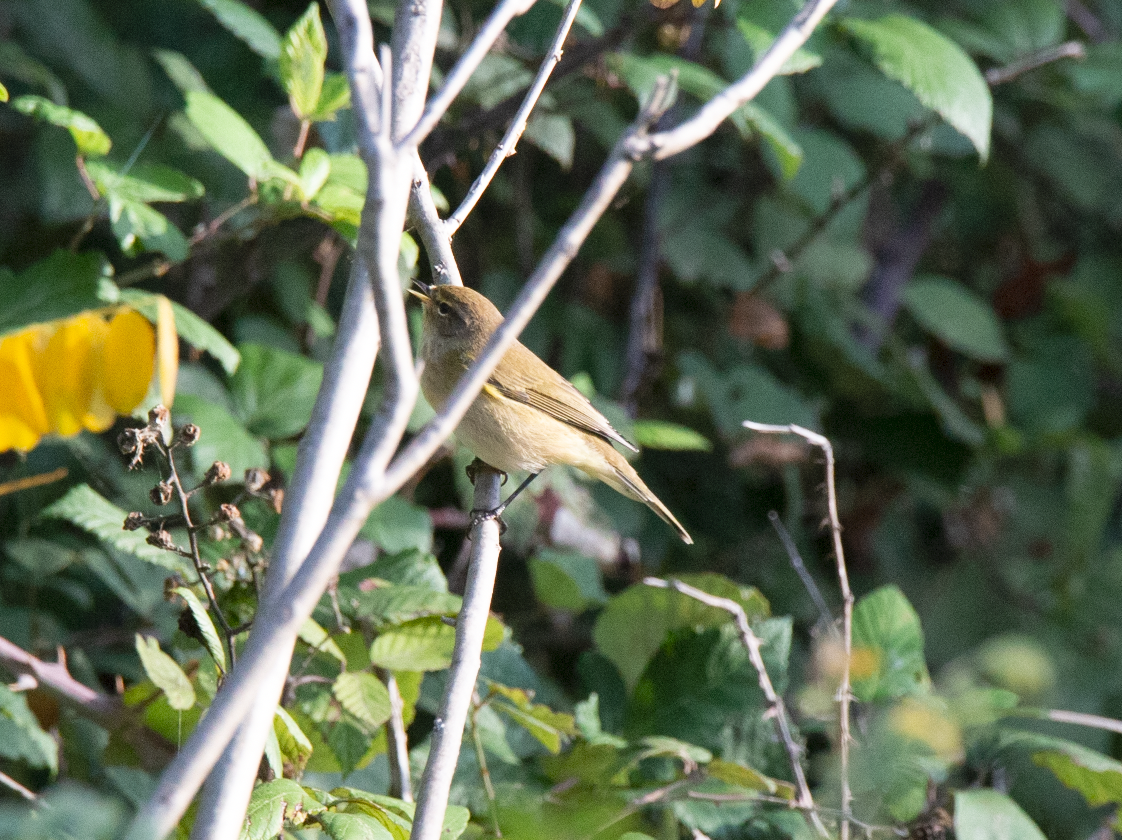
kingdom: Animalia
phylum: Chordata
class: Aves
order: Passeriformes
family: Phylloscopidae
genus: Phylloscopus
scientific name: Phylloscopus collybita
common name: Common chiffchaff
